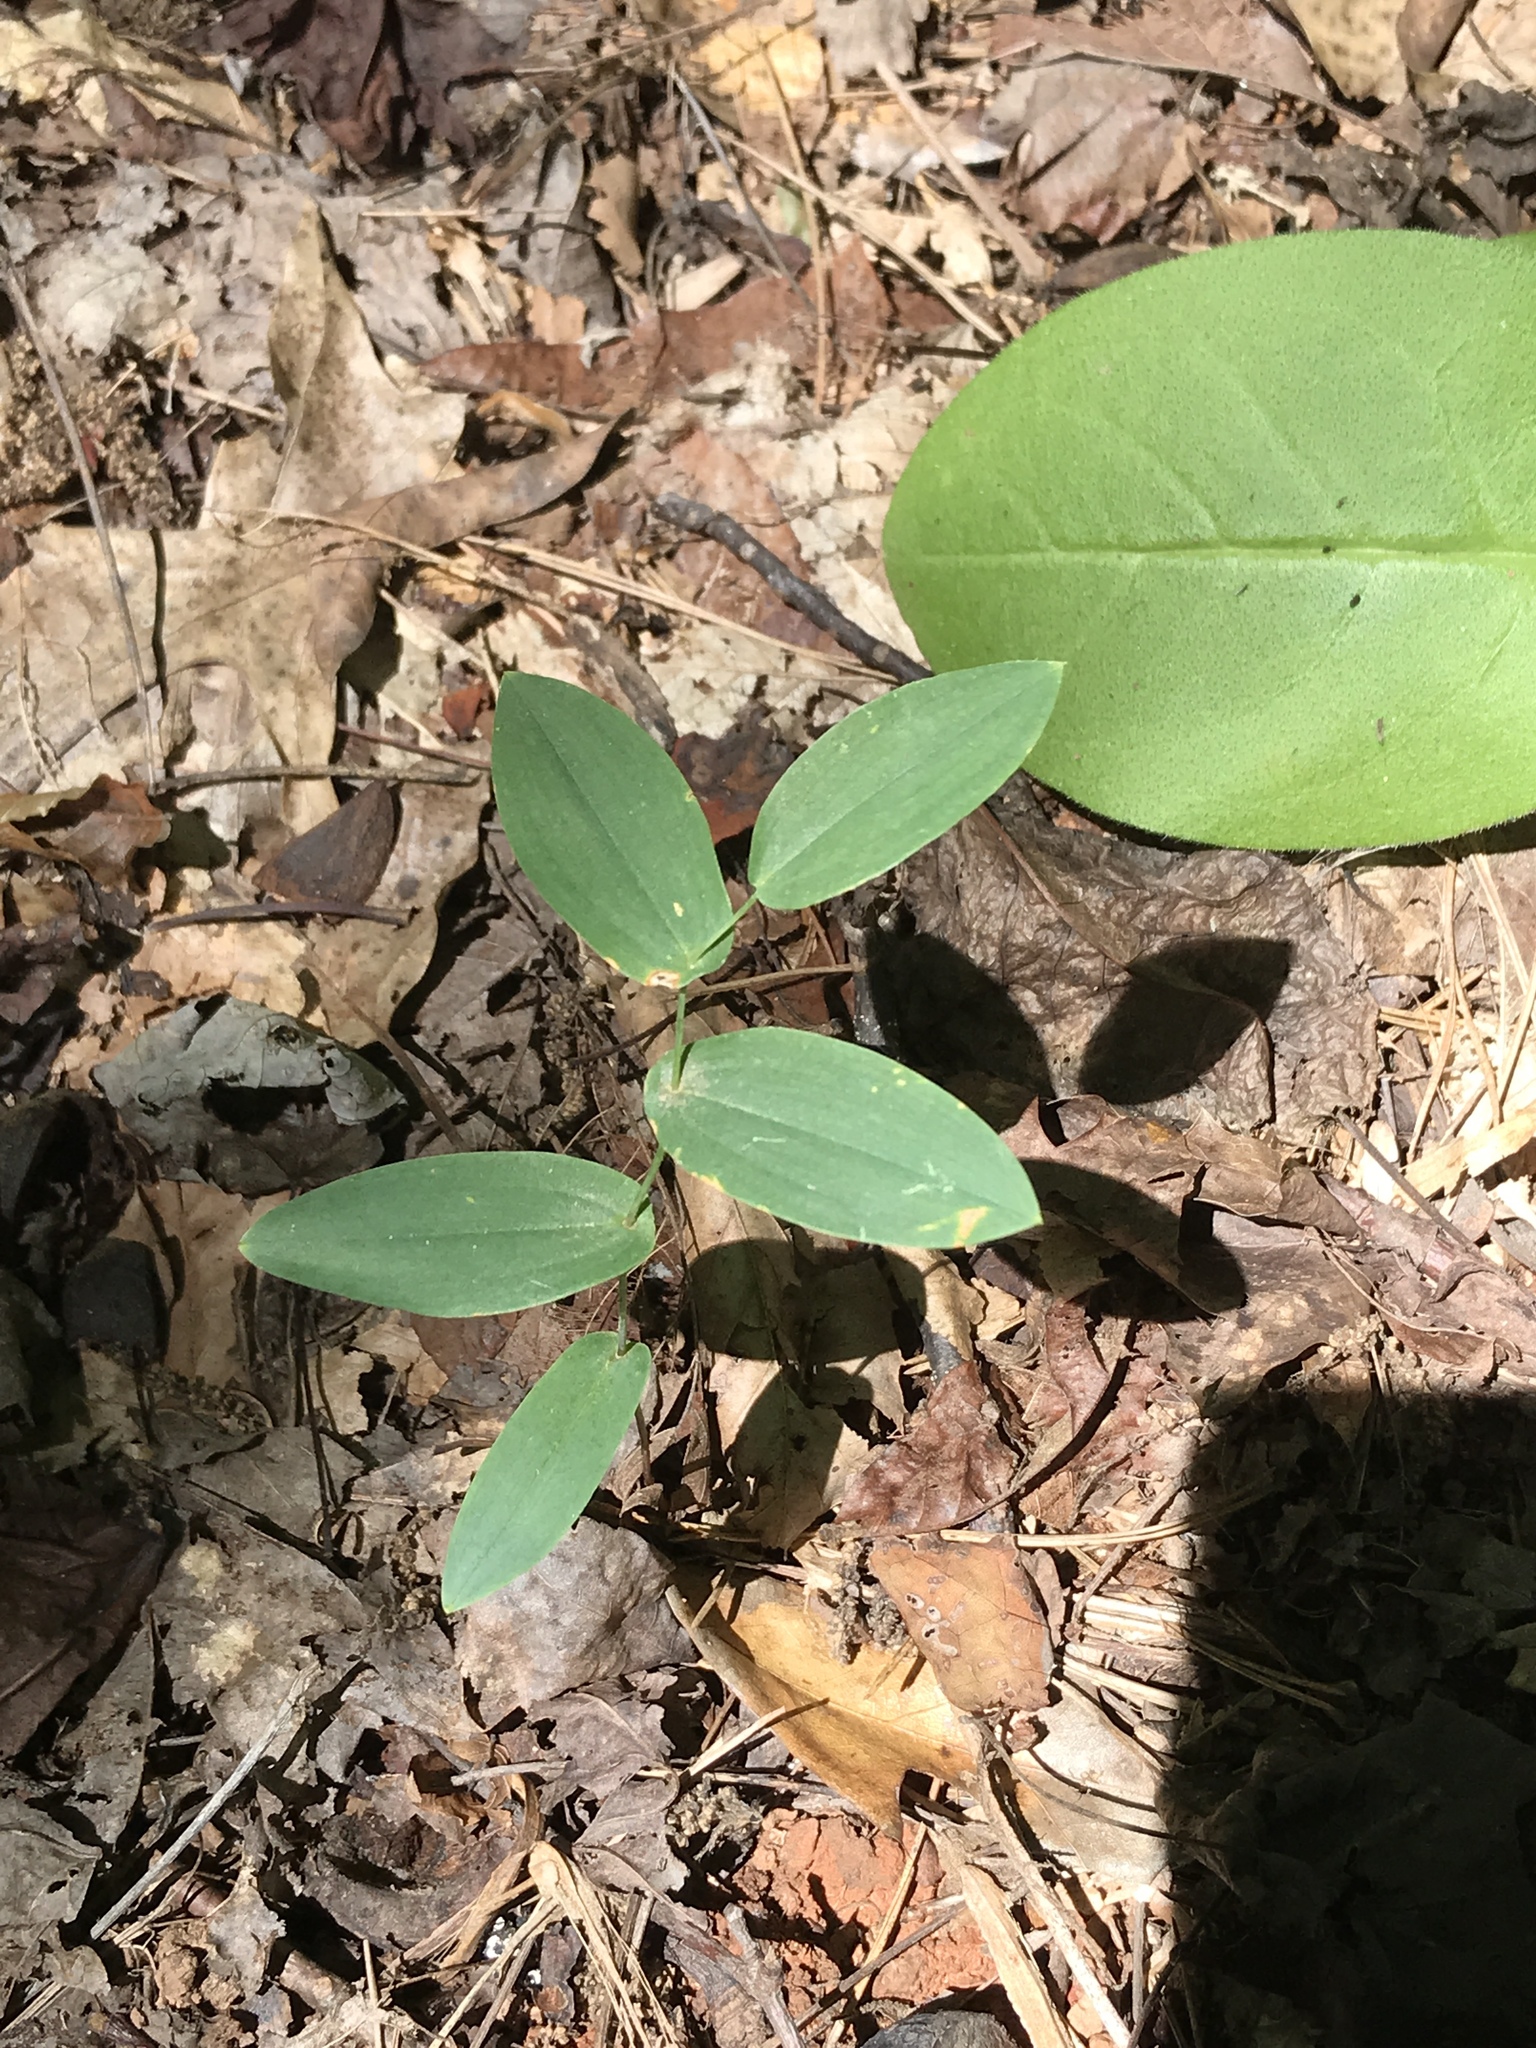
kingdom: Plantae
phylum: Tracheophyta
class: Liliopsida
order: Liliales
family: Colchicaceae
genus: Uvularia
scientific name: Uvularia perfoliata
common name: Perfoliate bellwort
